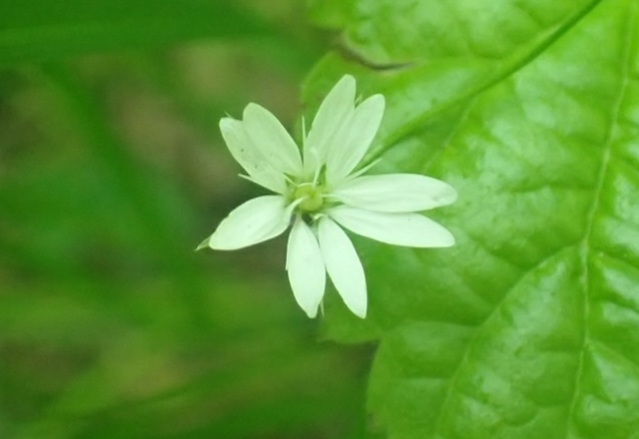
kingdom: Plantae
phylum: Tracheophyta
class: Magnoliopsida
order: Caryophyllales
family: Caryophyllaceae
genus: Stellaria
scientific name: Stellaria bungeana
